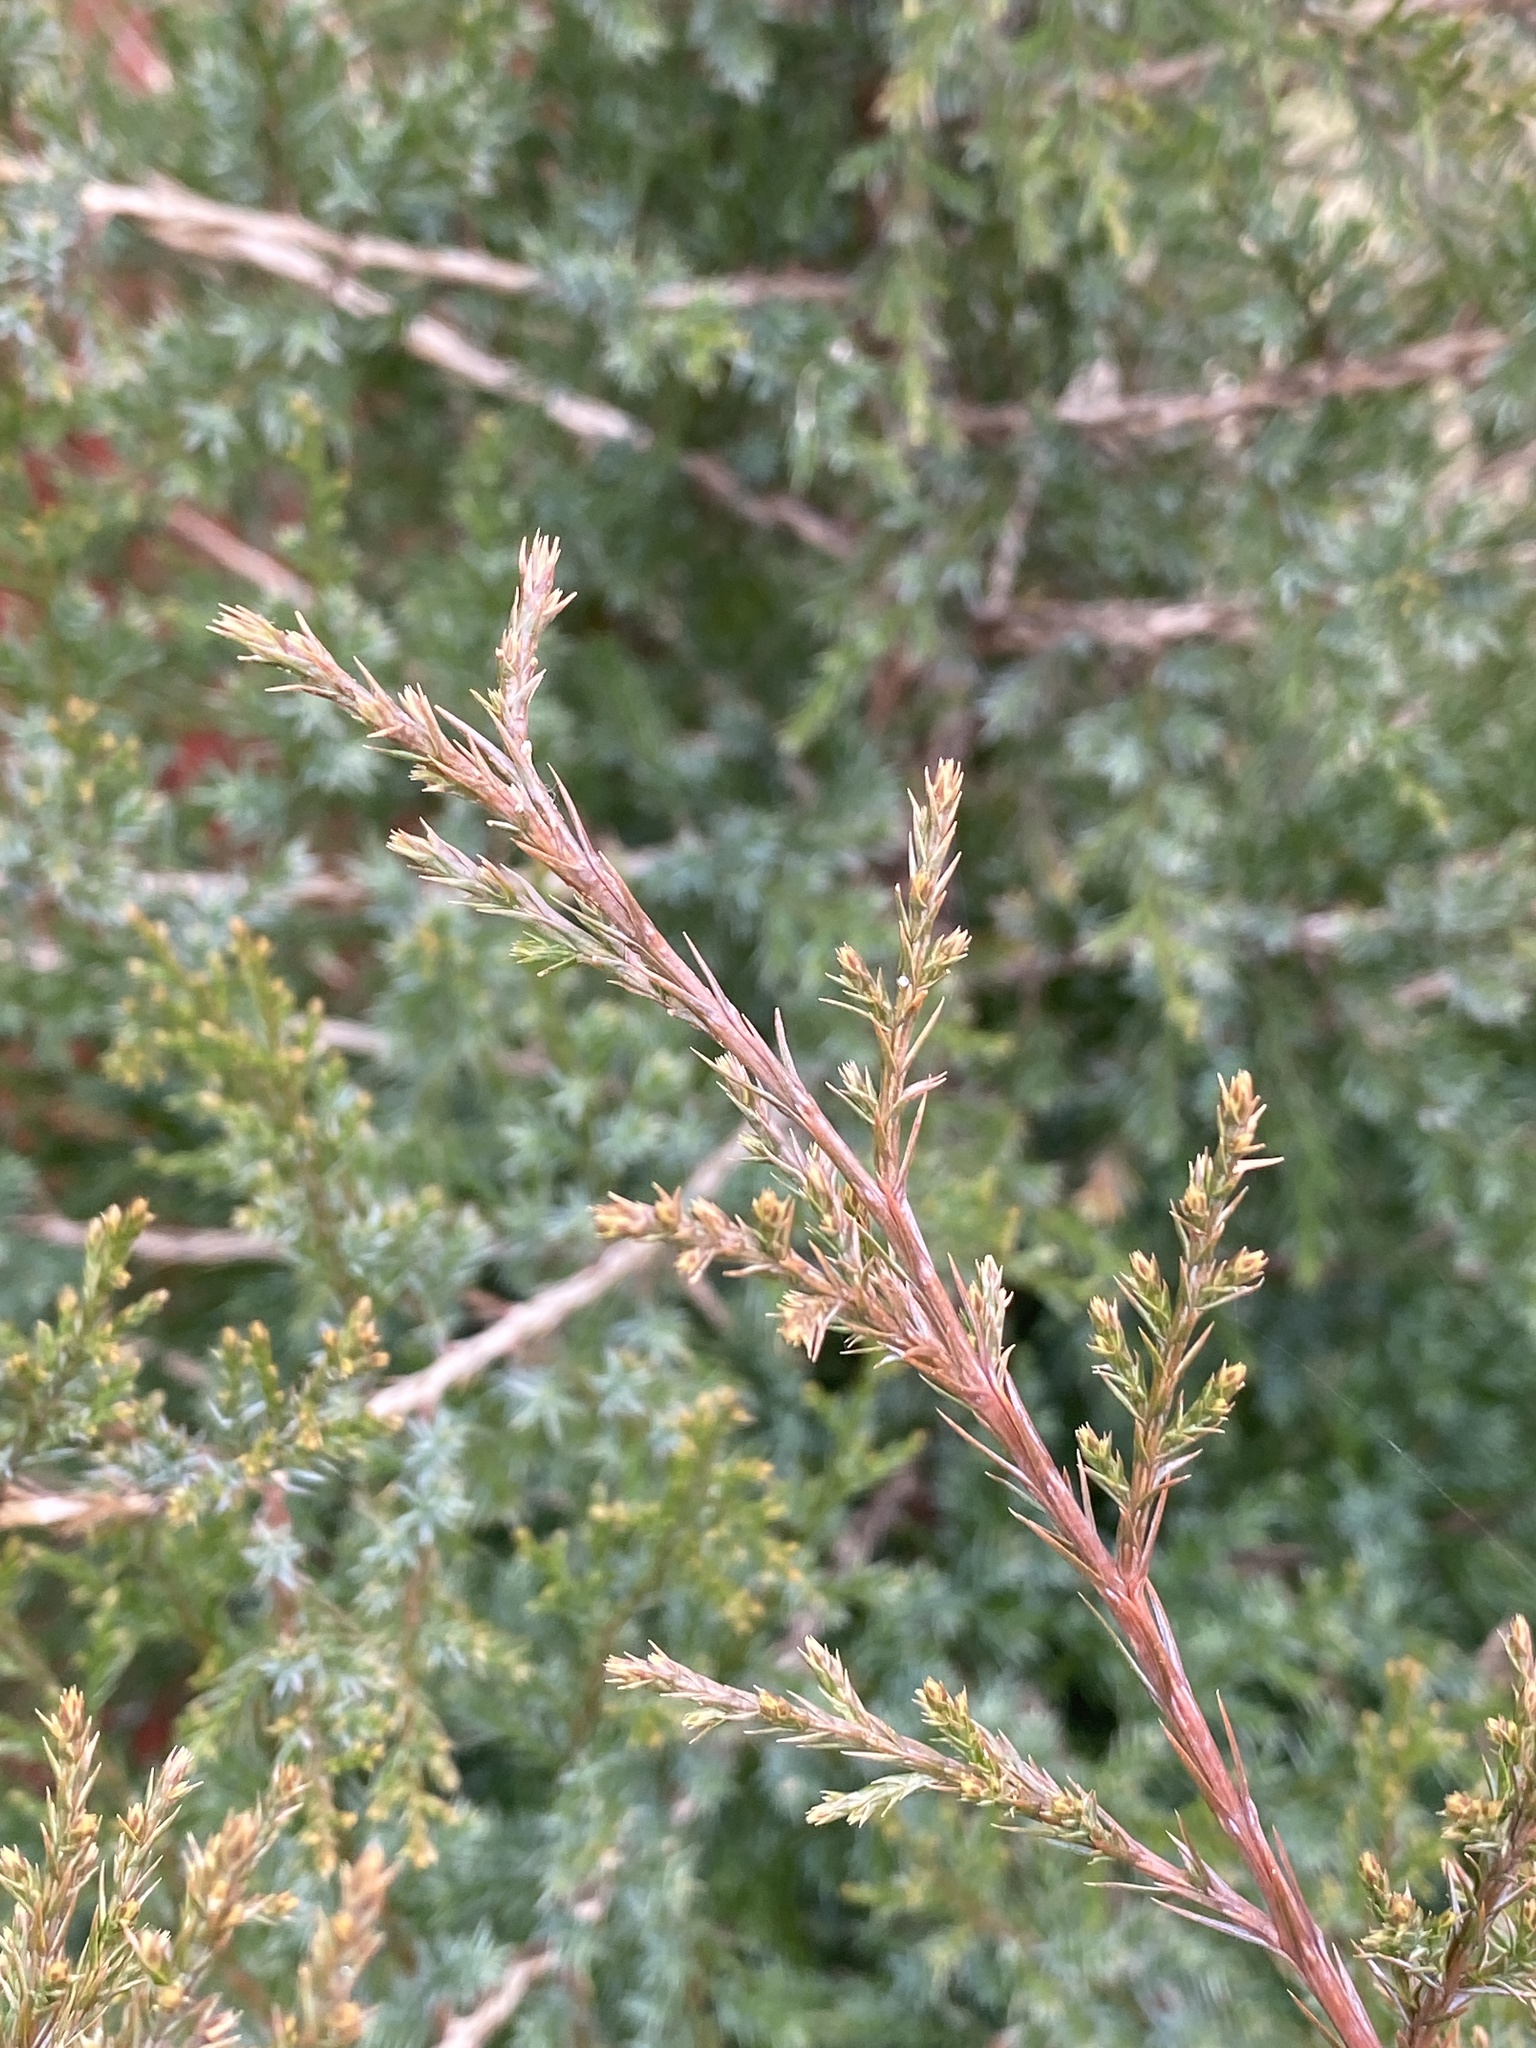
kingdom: Plantae
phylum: Tracheophyta
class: Pinopsida
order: Pinales
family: Cupressaceae
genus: Juniperus
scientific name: Juniperus virginiana
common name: Red juniper
